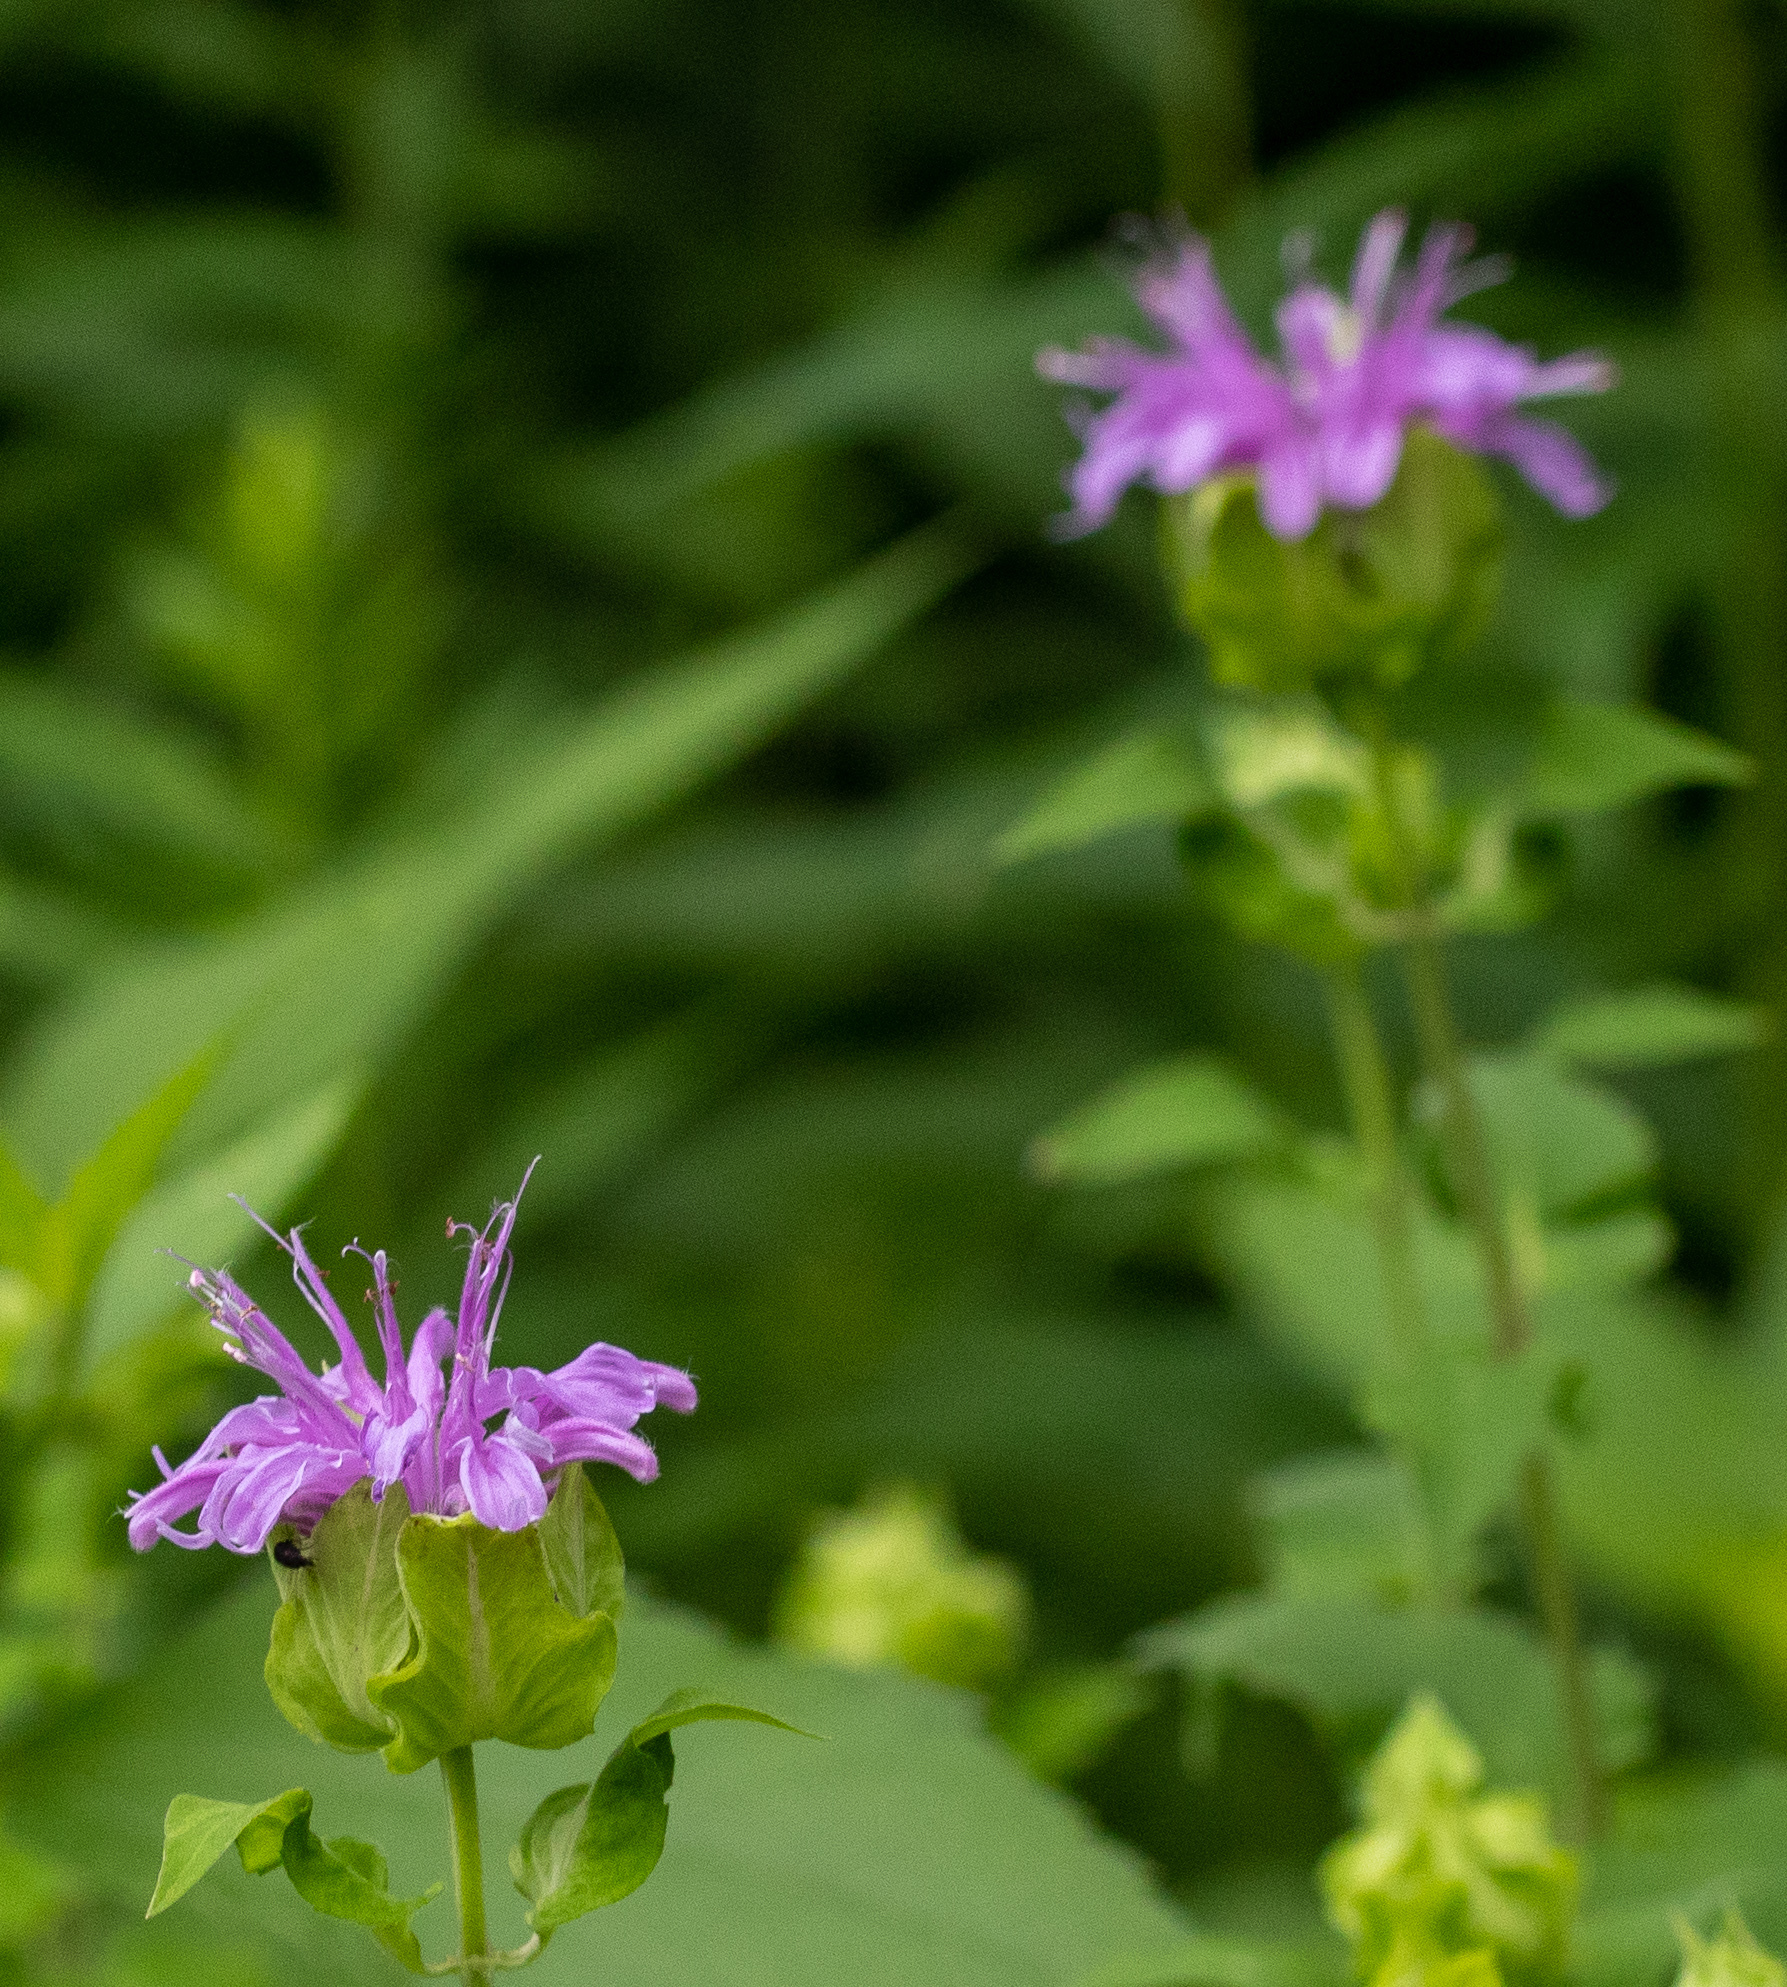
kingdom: Plantae
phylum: Tracheophyta
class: Magnoliopsida
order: Lamiales
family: Lamiaceae
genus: Monarda
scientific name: Monarda fistulosa
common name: Purple beebalm
